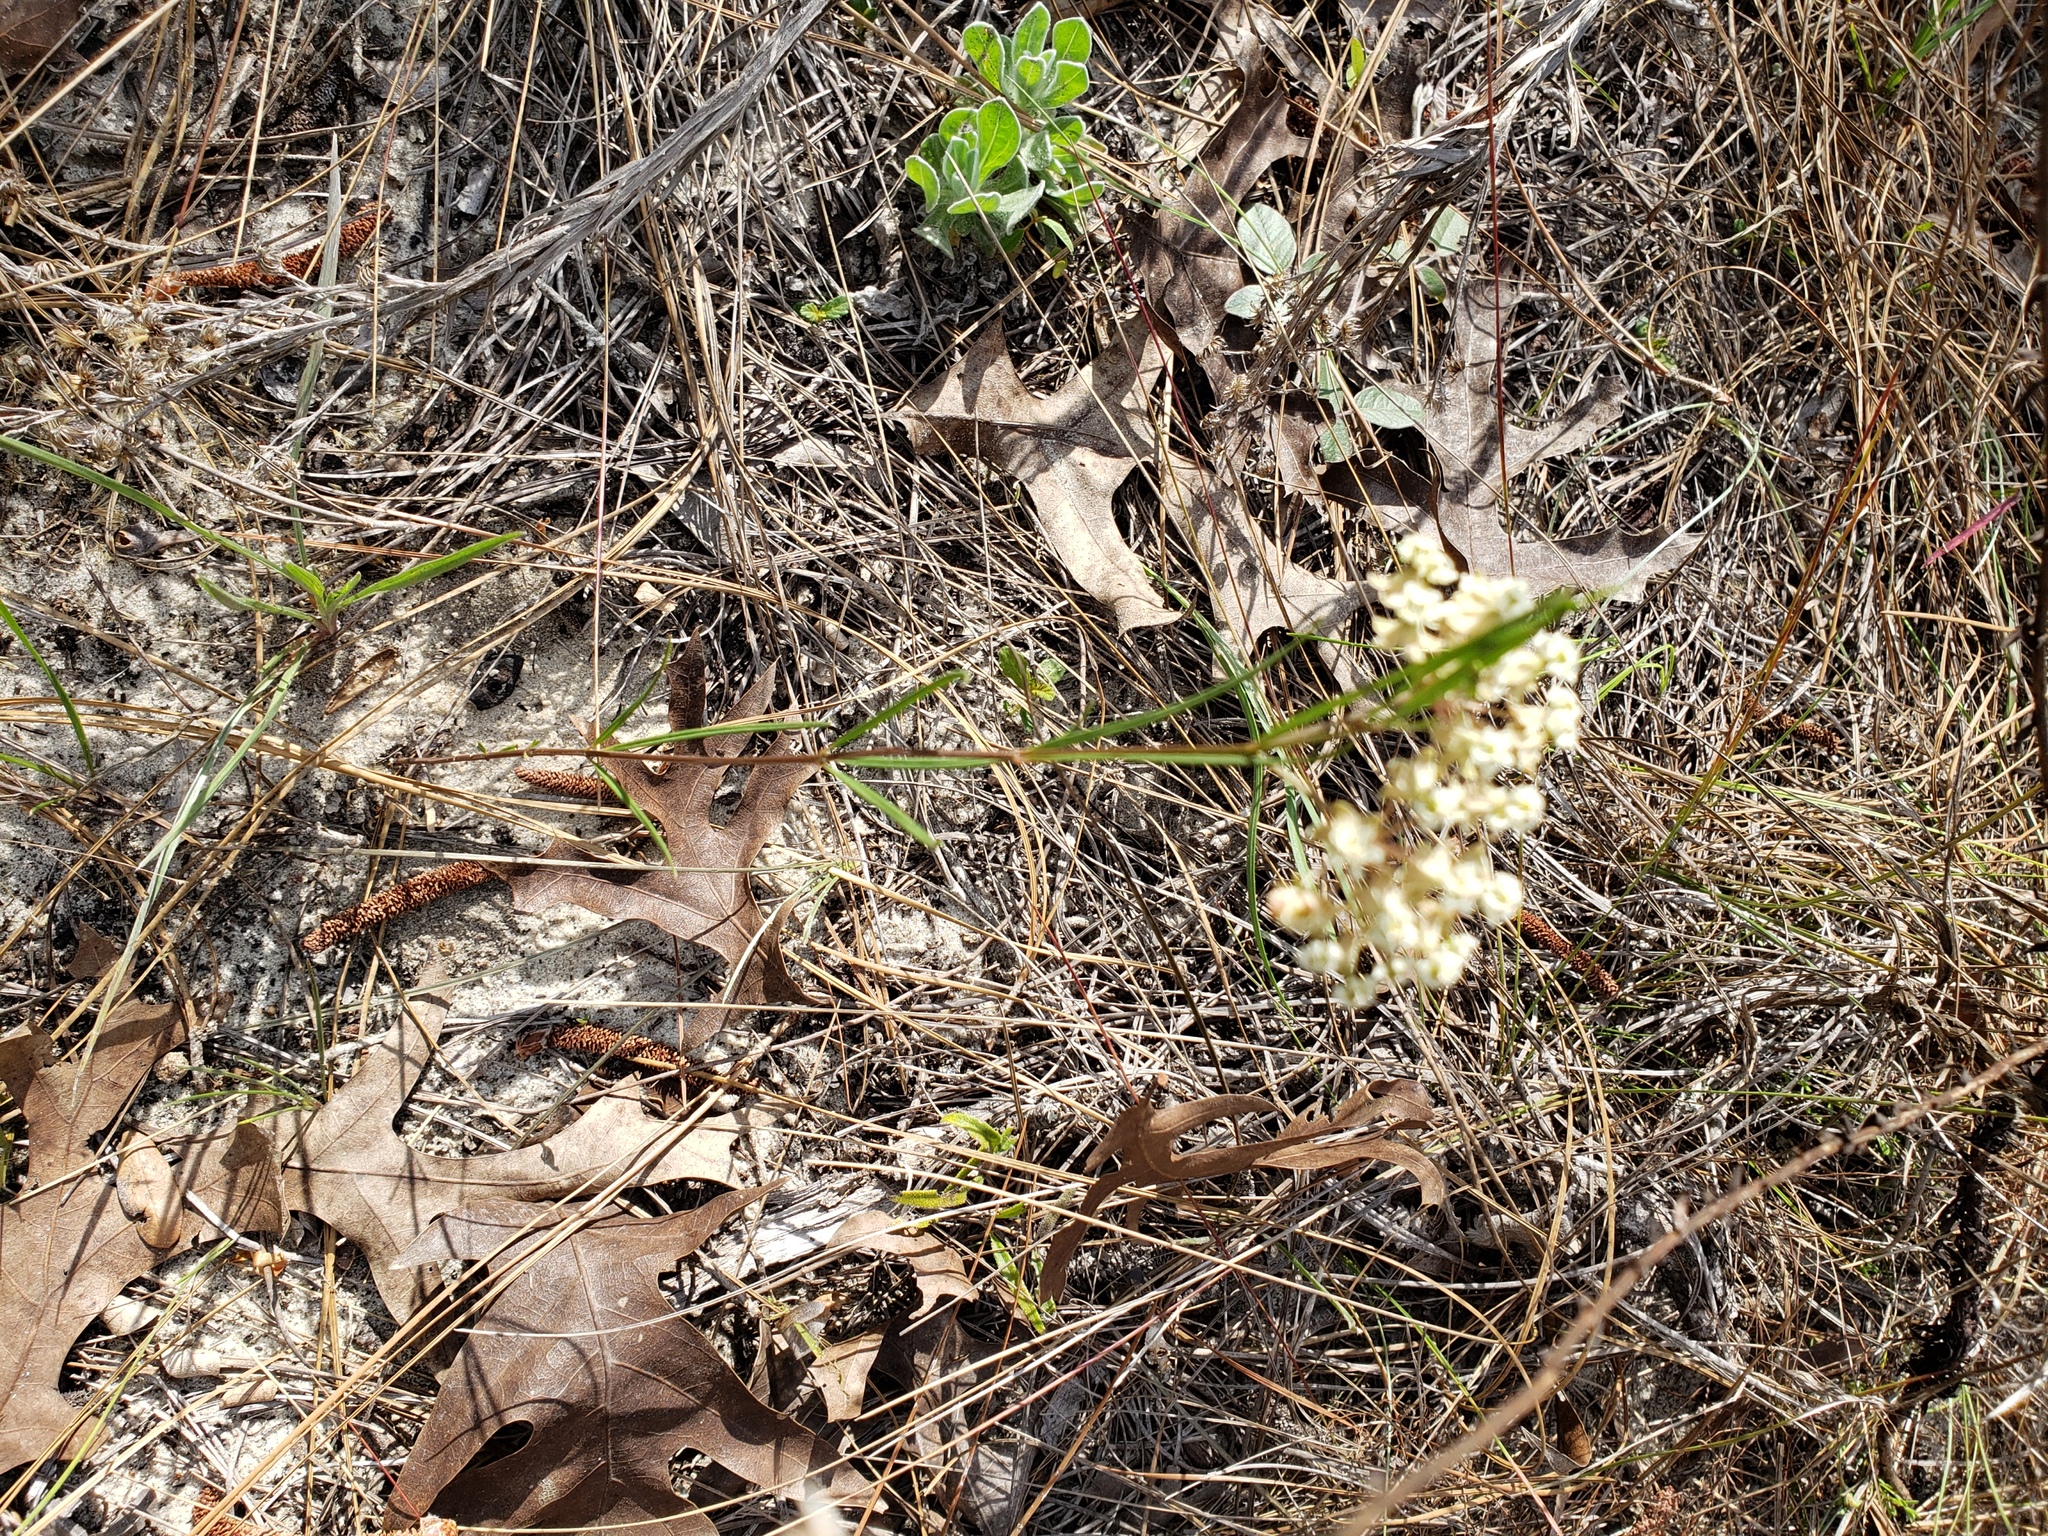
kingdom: Plantae
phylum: Tracheophyta
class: Magnoliopsida
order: Gentianales
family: Apocynaceae
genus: Asclepias
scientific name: Asclepias verticillata
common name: Eastern whorled milkweed
